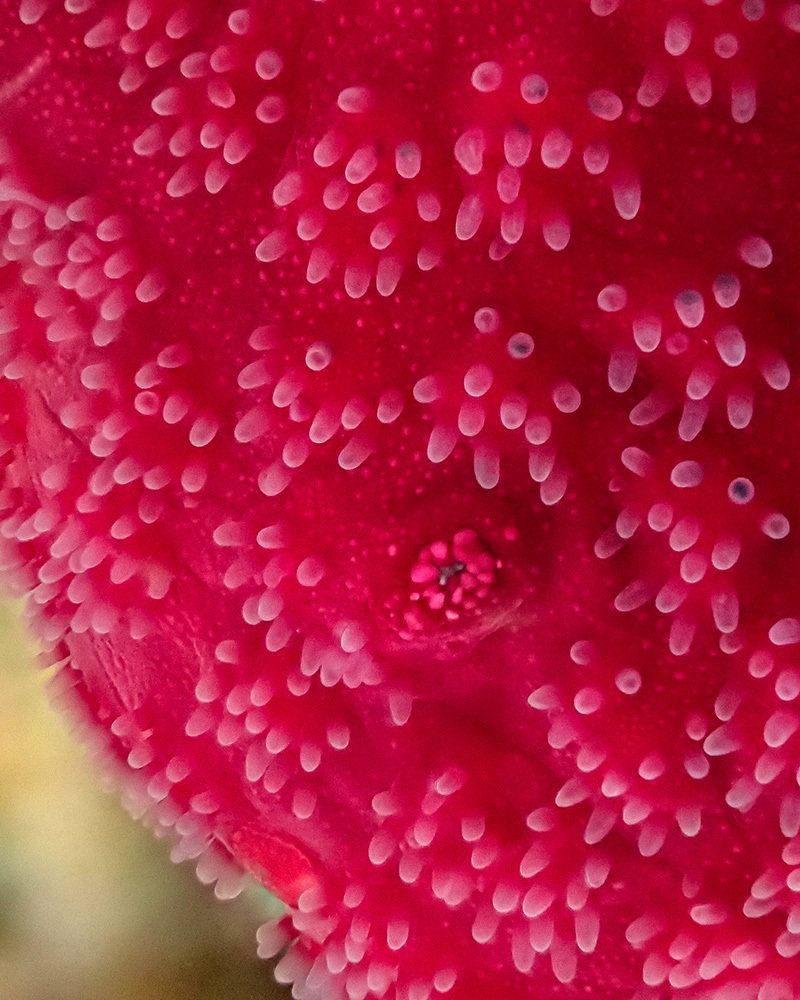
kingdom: Animalia
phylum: Echinodermata
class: Asteroidea
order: Valvatida
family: Ophidiasteridae
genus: Ophidiaster
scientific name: Ophidiaster ophidianus
